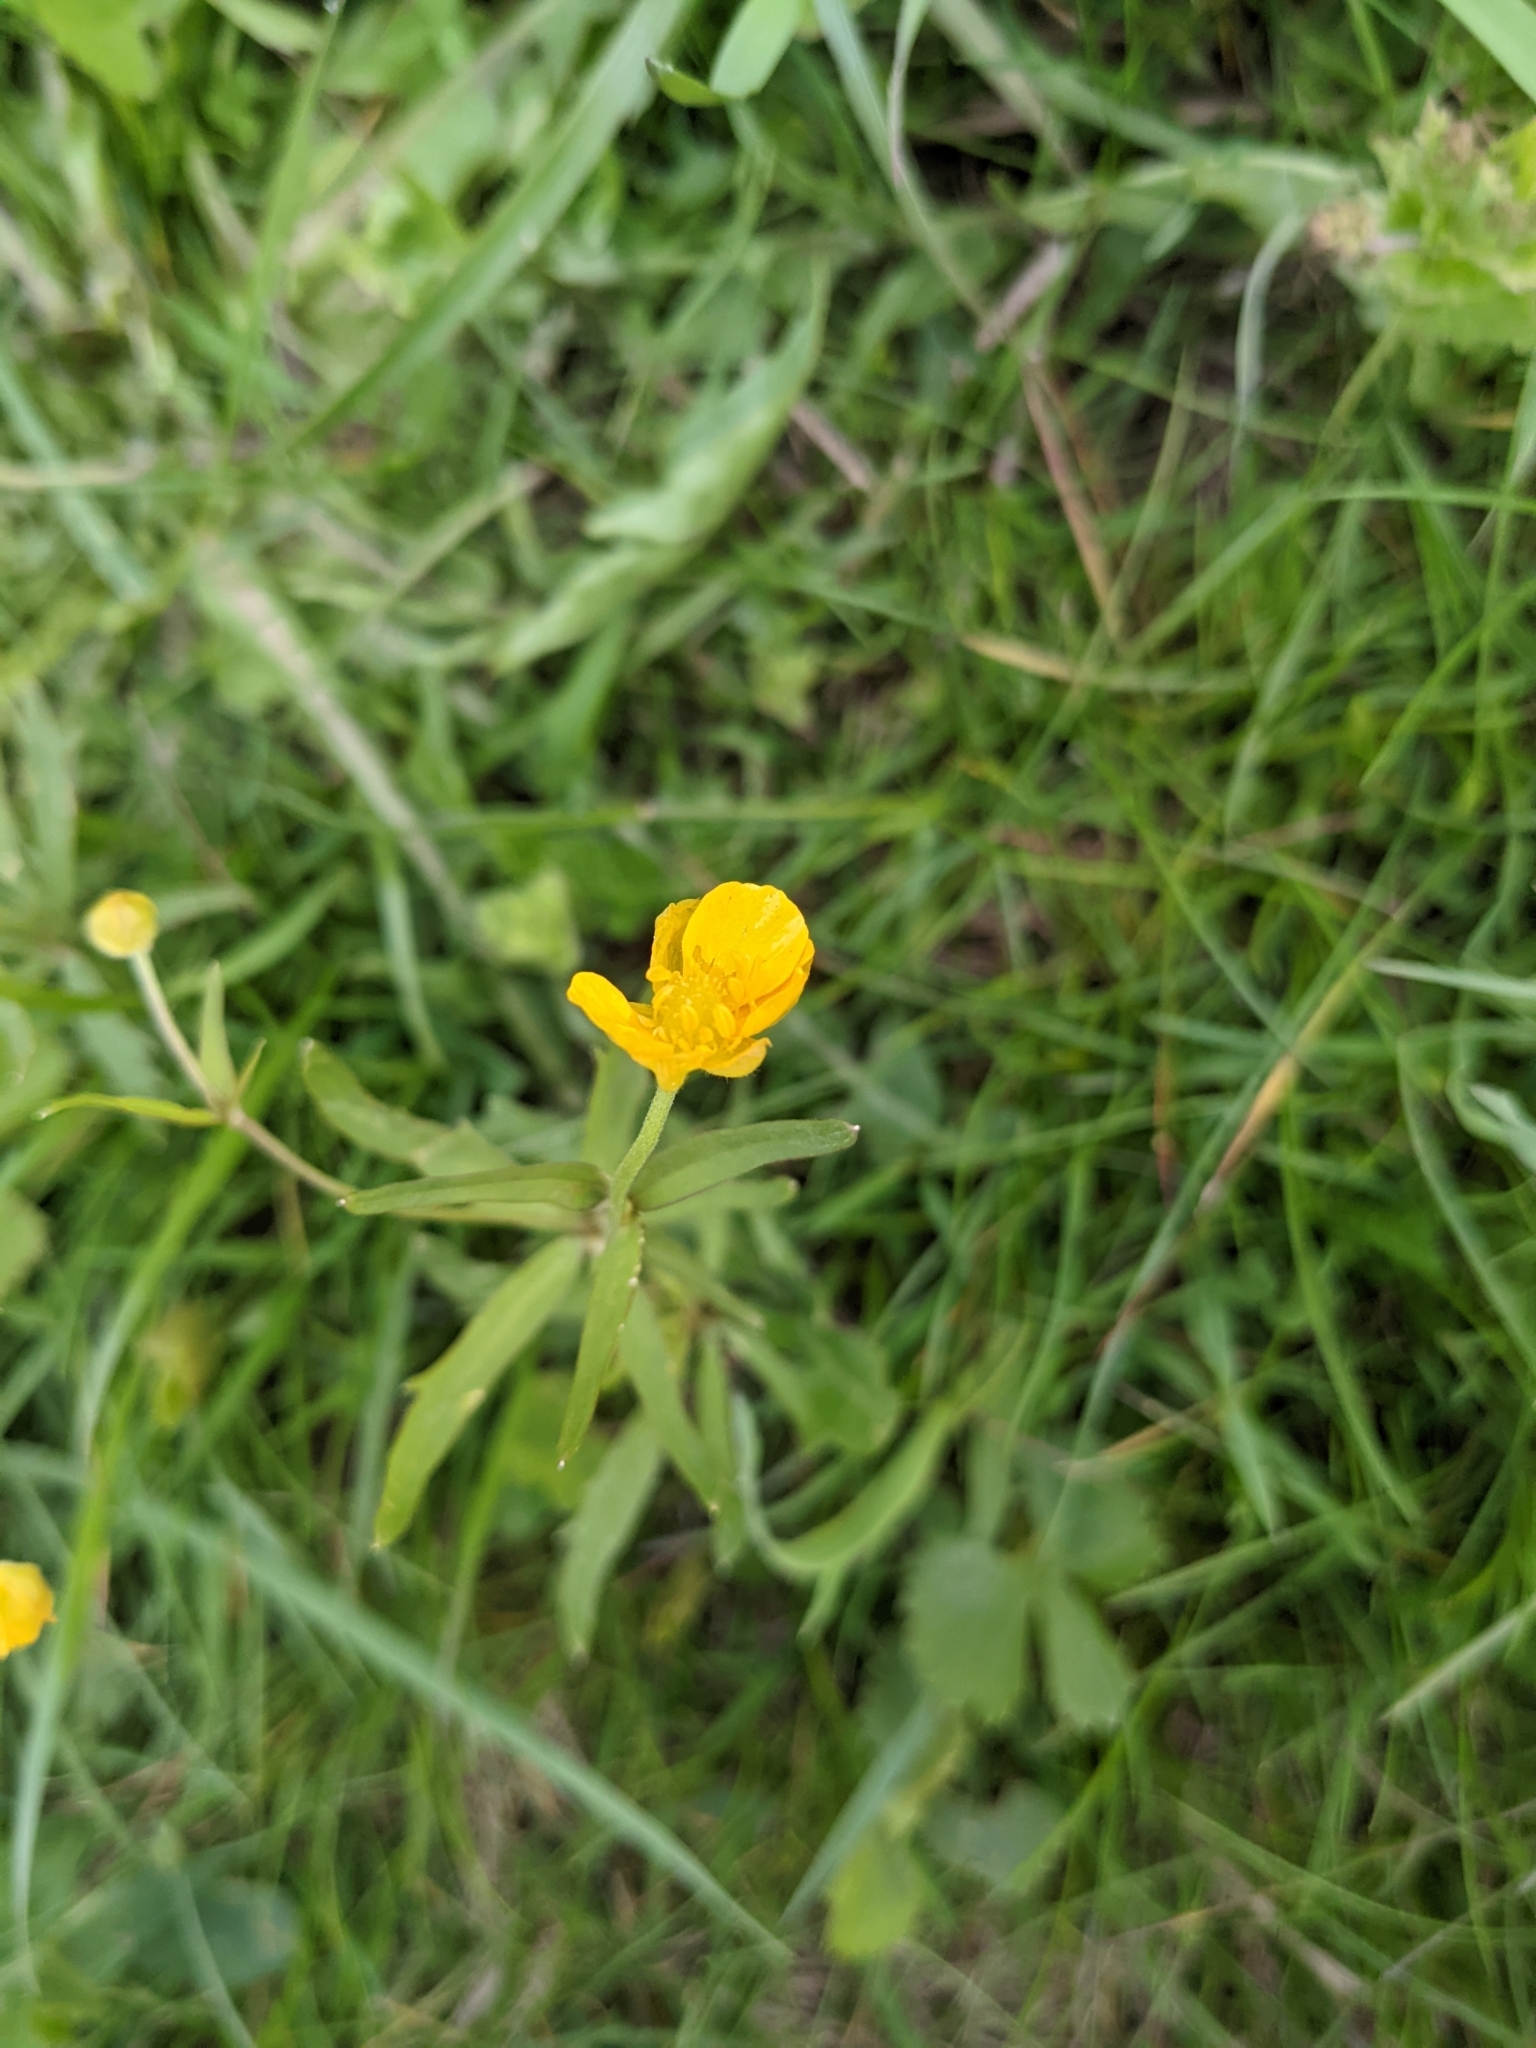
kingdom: Plantae
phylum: Tracheophyta
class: Magnoliopsida
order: Ranunculales
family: Ranunculaceae
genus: Ranunculus
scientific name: Ranunculus auricomus
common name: Goldilocks buttercup
